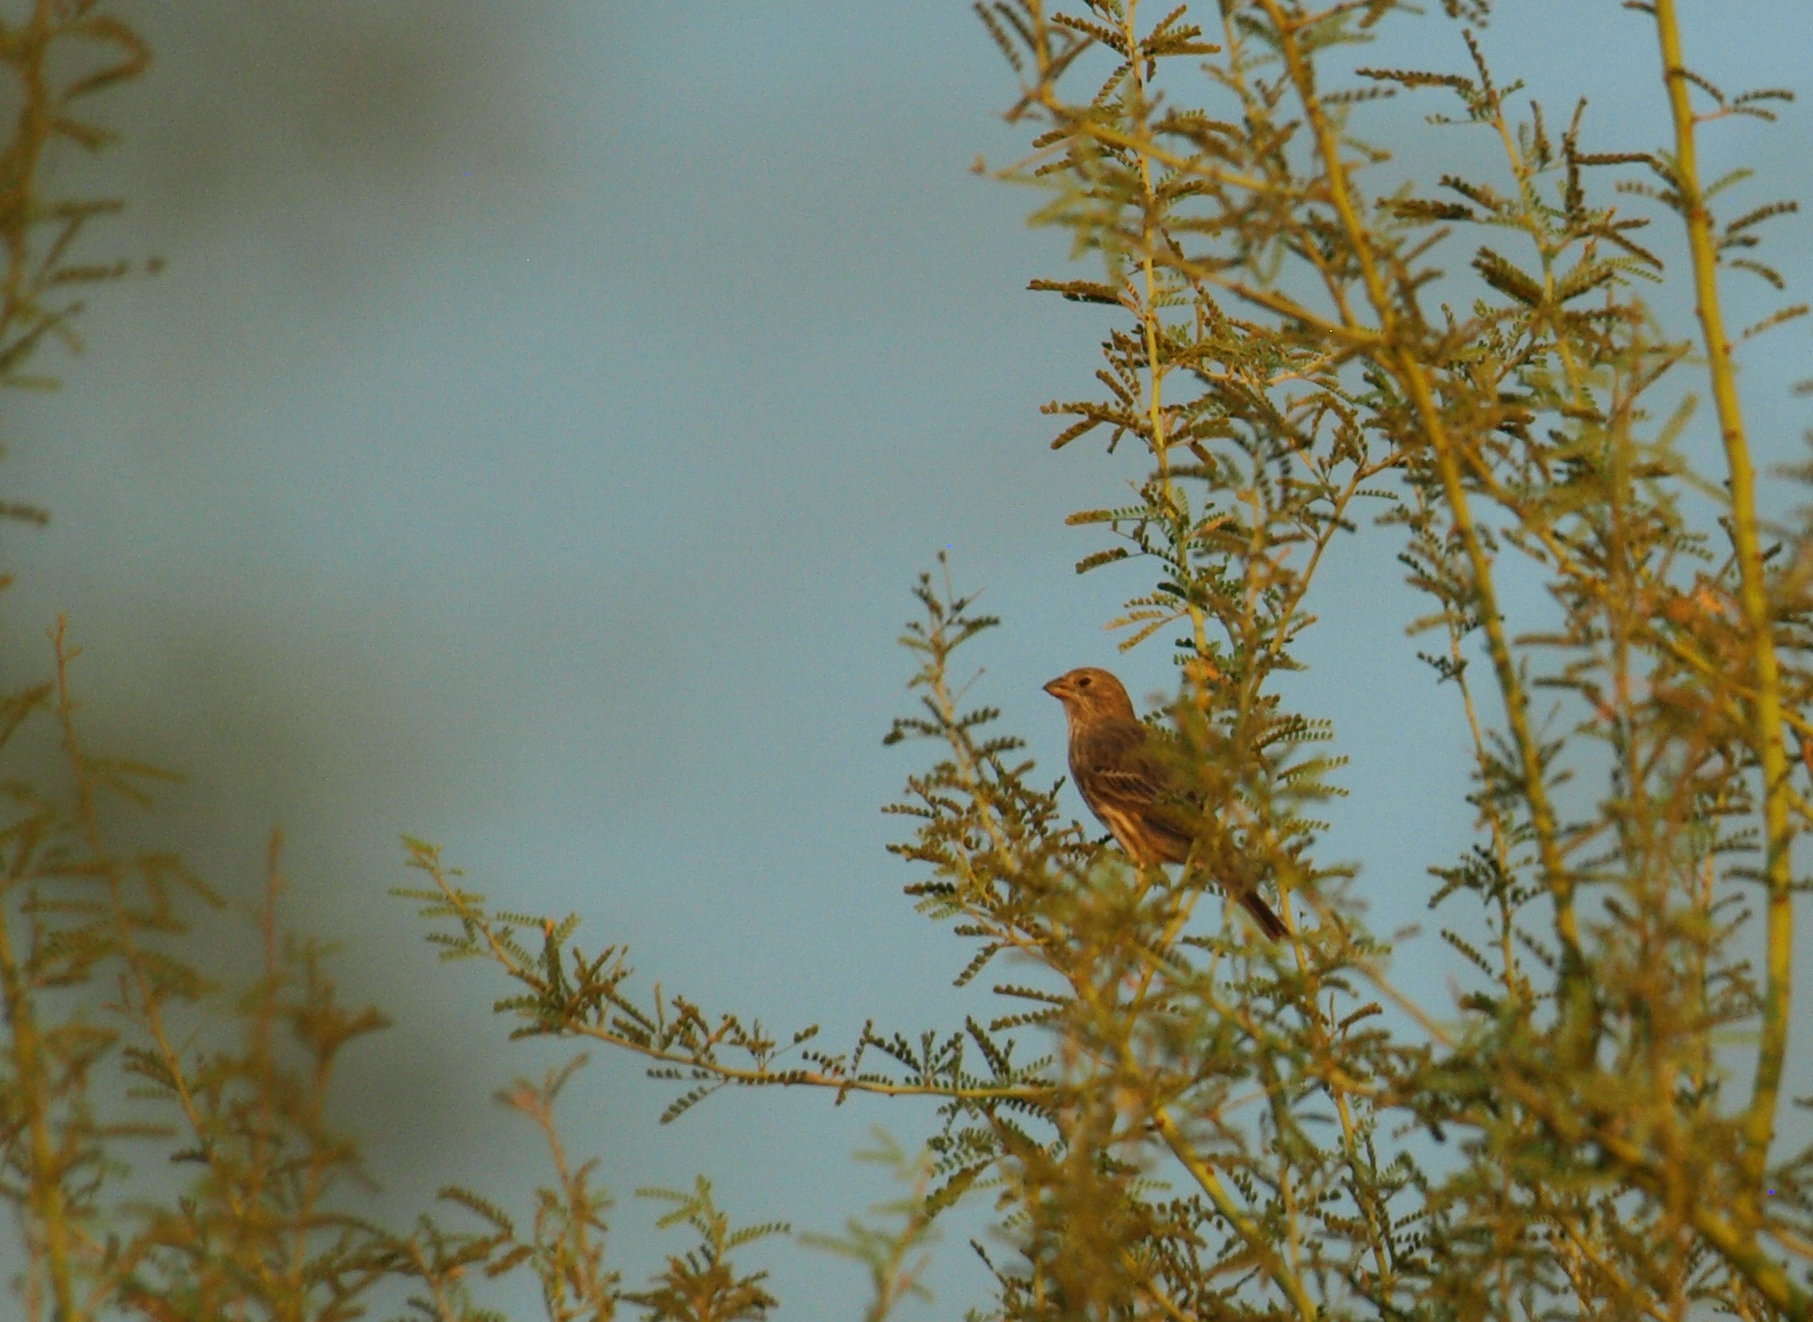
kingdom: Animalia
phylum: Chordata
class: Aves
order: Passeriformes
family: Fringillidae
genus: Haemorhous
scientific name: Haemorhous mexicanus
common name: House finch
